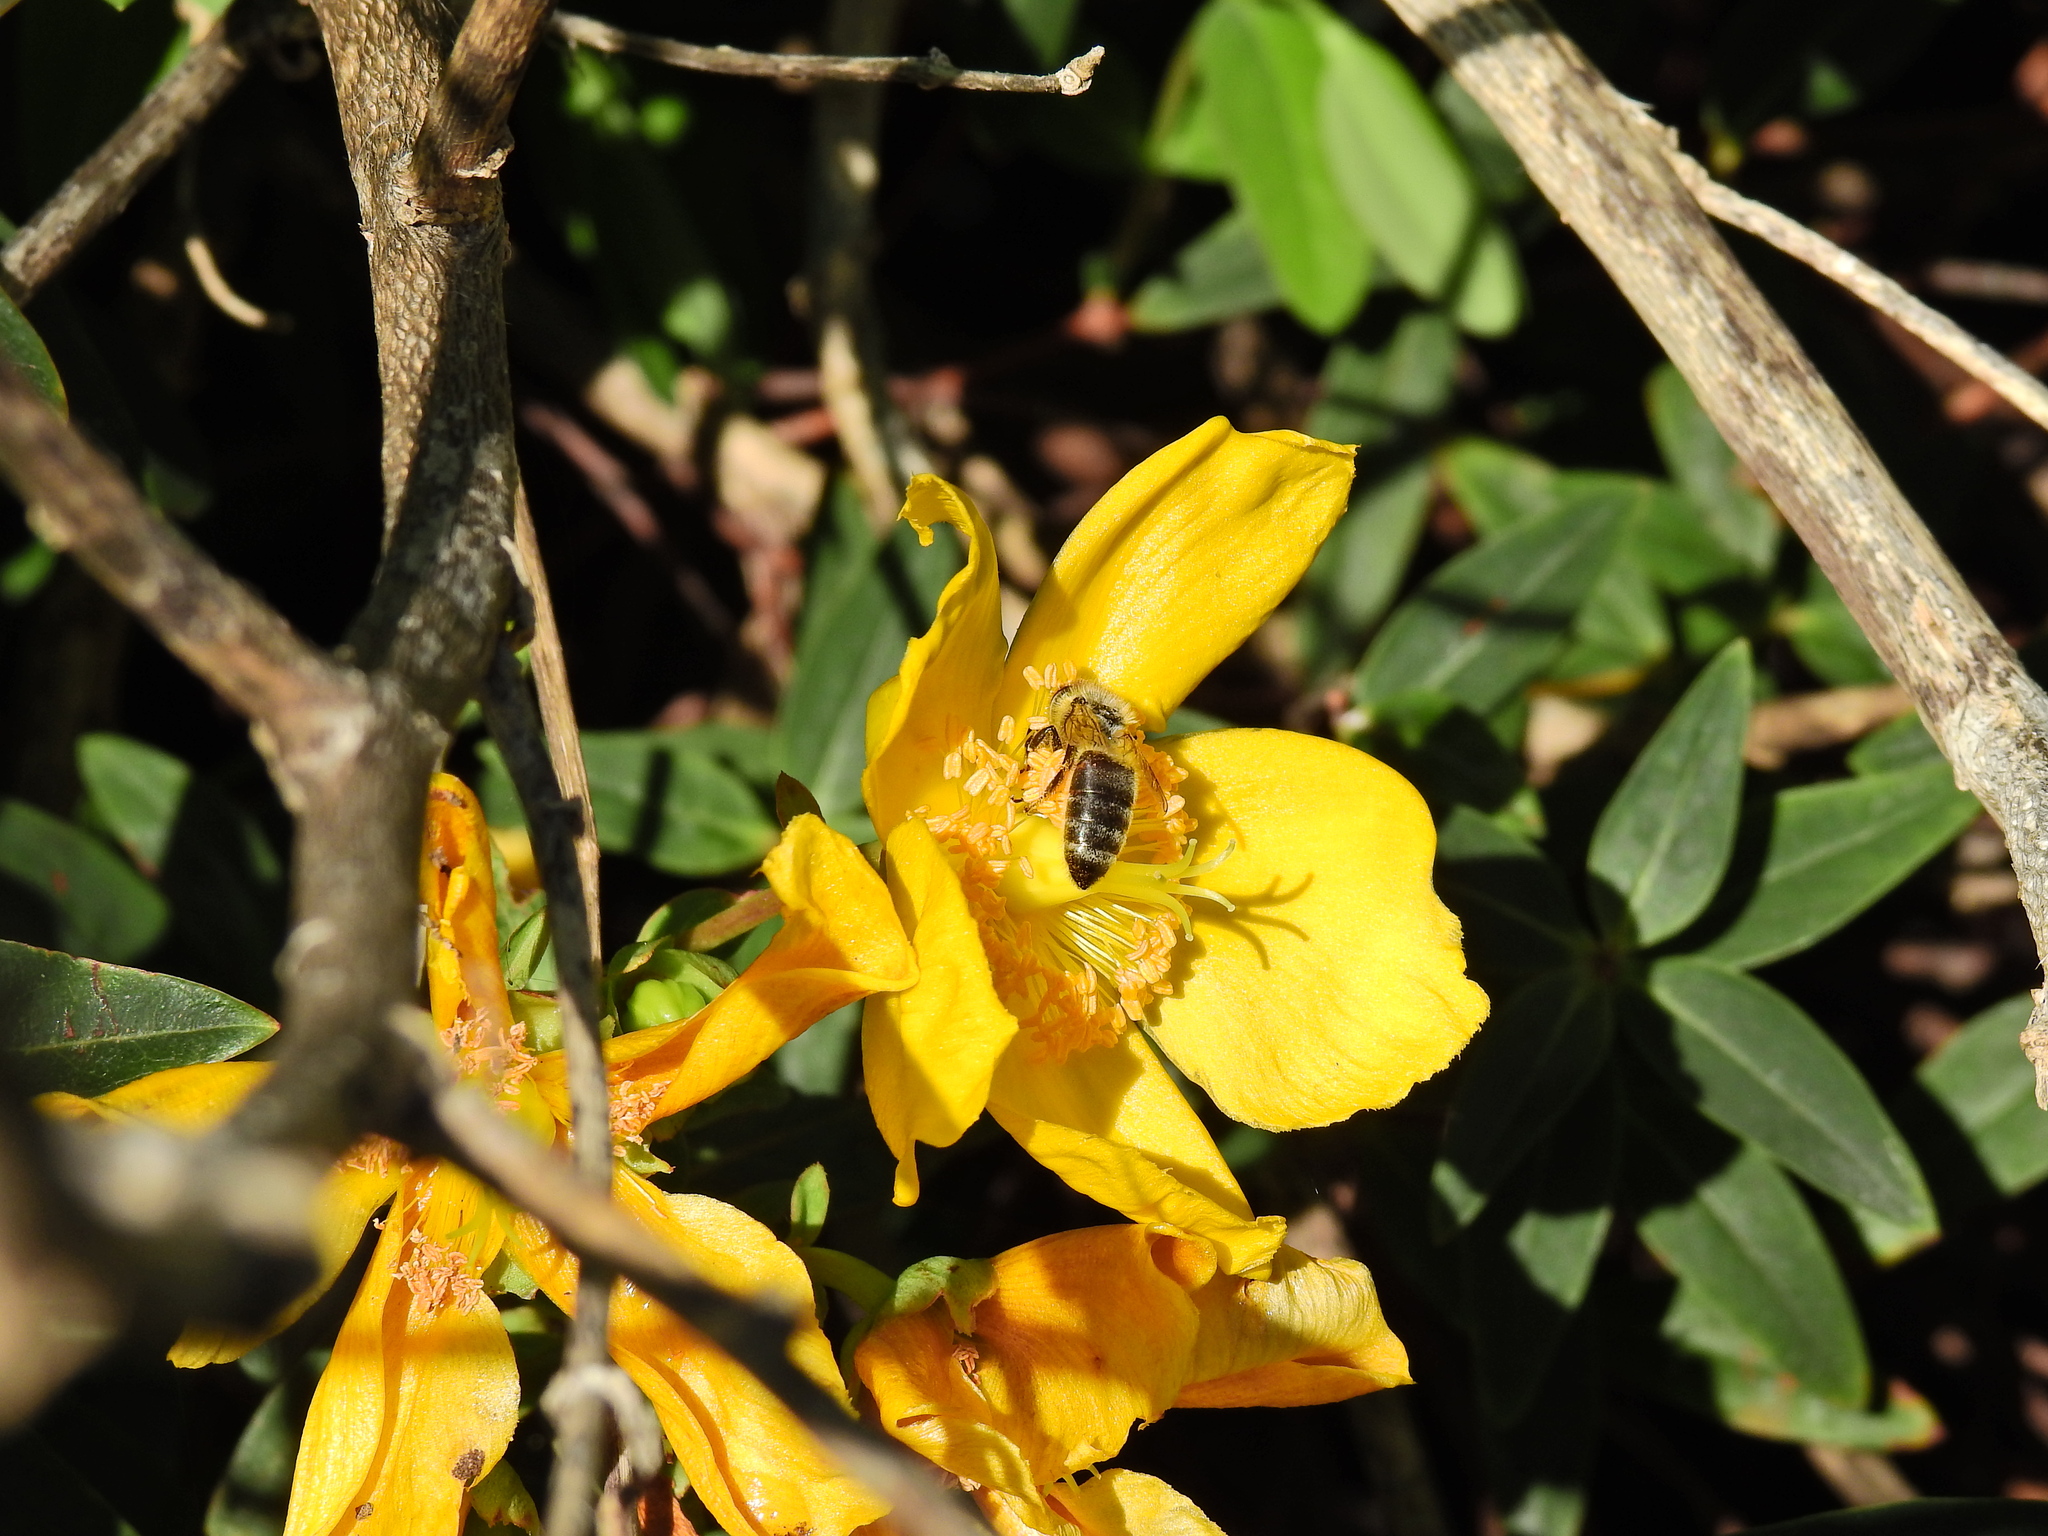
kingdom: Animalia
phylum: Arthropoda
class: Insecta
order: Hymenoptera
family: Apidae
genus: Apis
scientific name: Apis mellifera
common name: Honey bee
